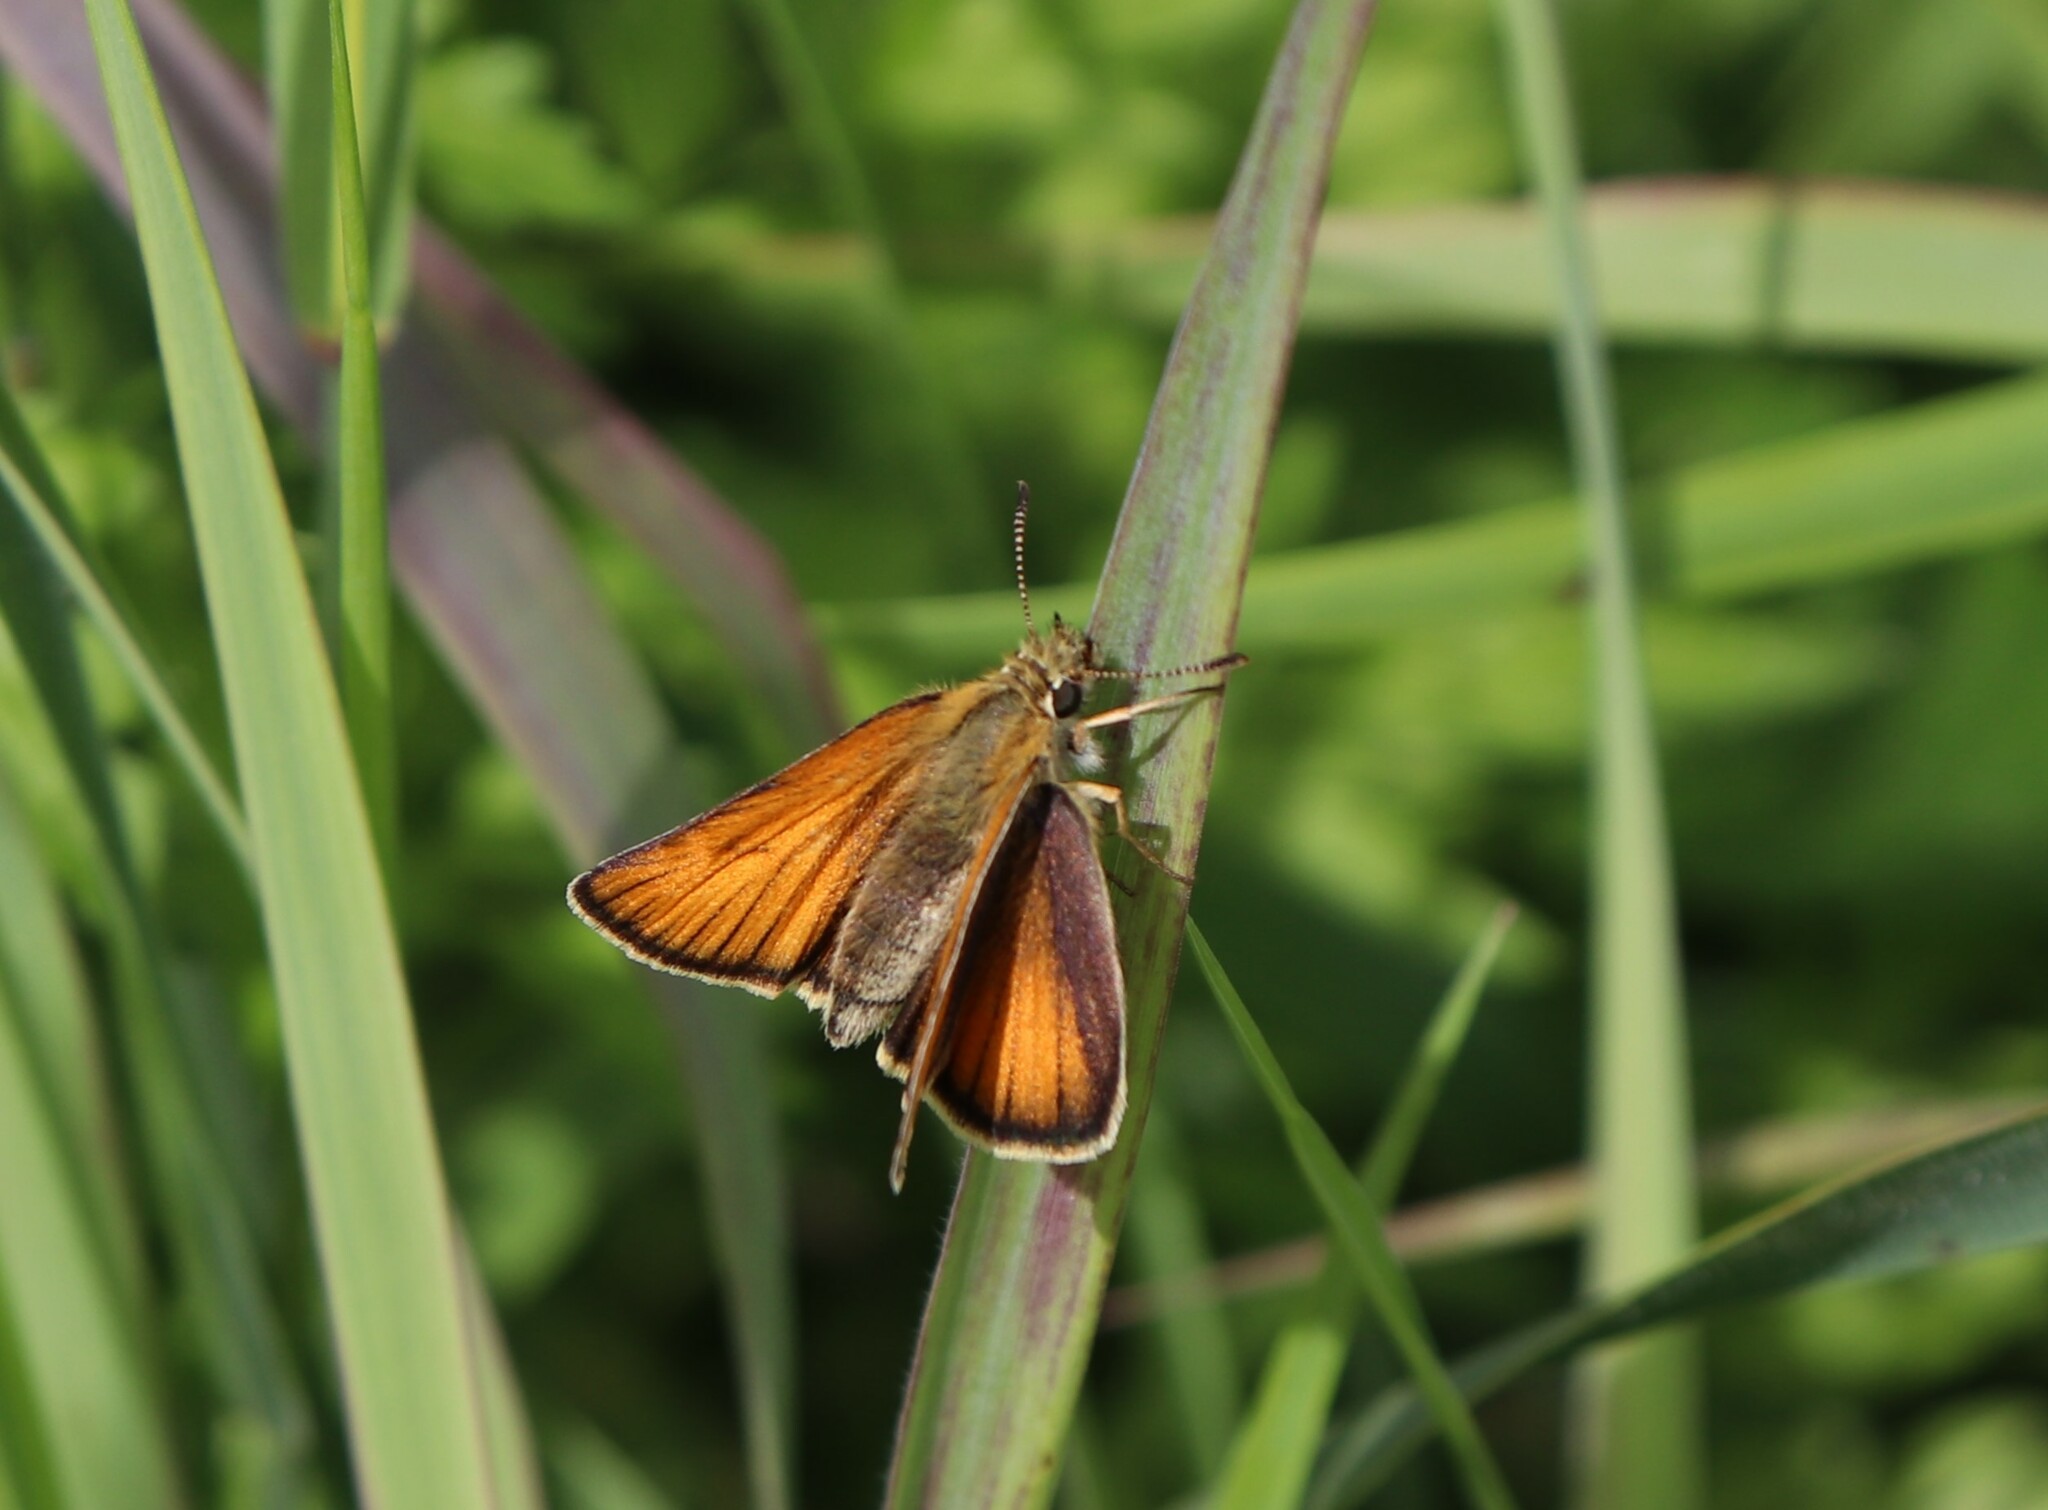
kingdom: Animalia
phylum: Arthropoda
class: Insecta
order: Lepidoptera
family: Hesperiidae
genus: Thymelicus
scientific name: Thymelicus lineola
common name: Essex skipper
